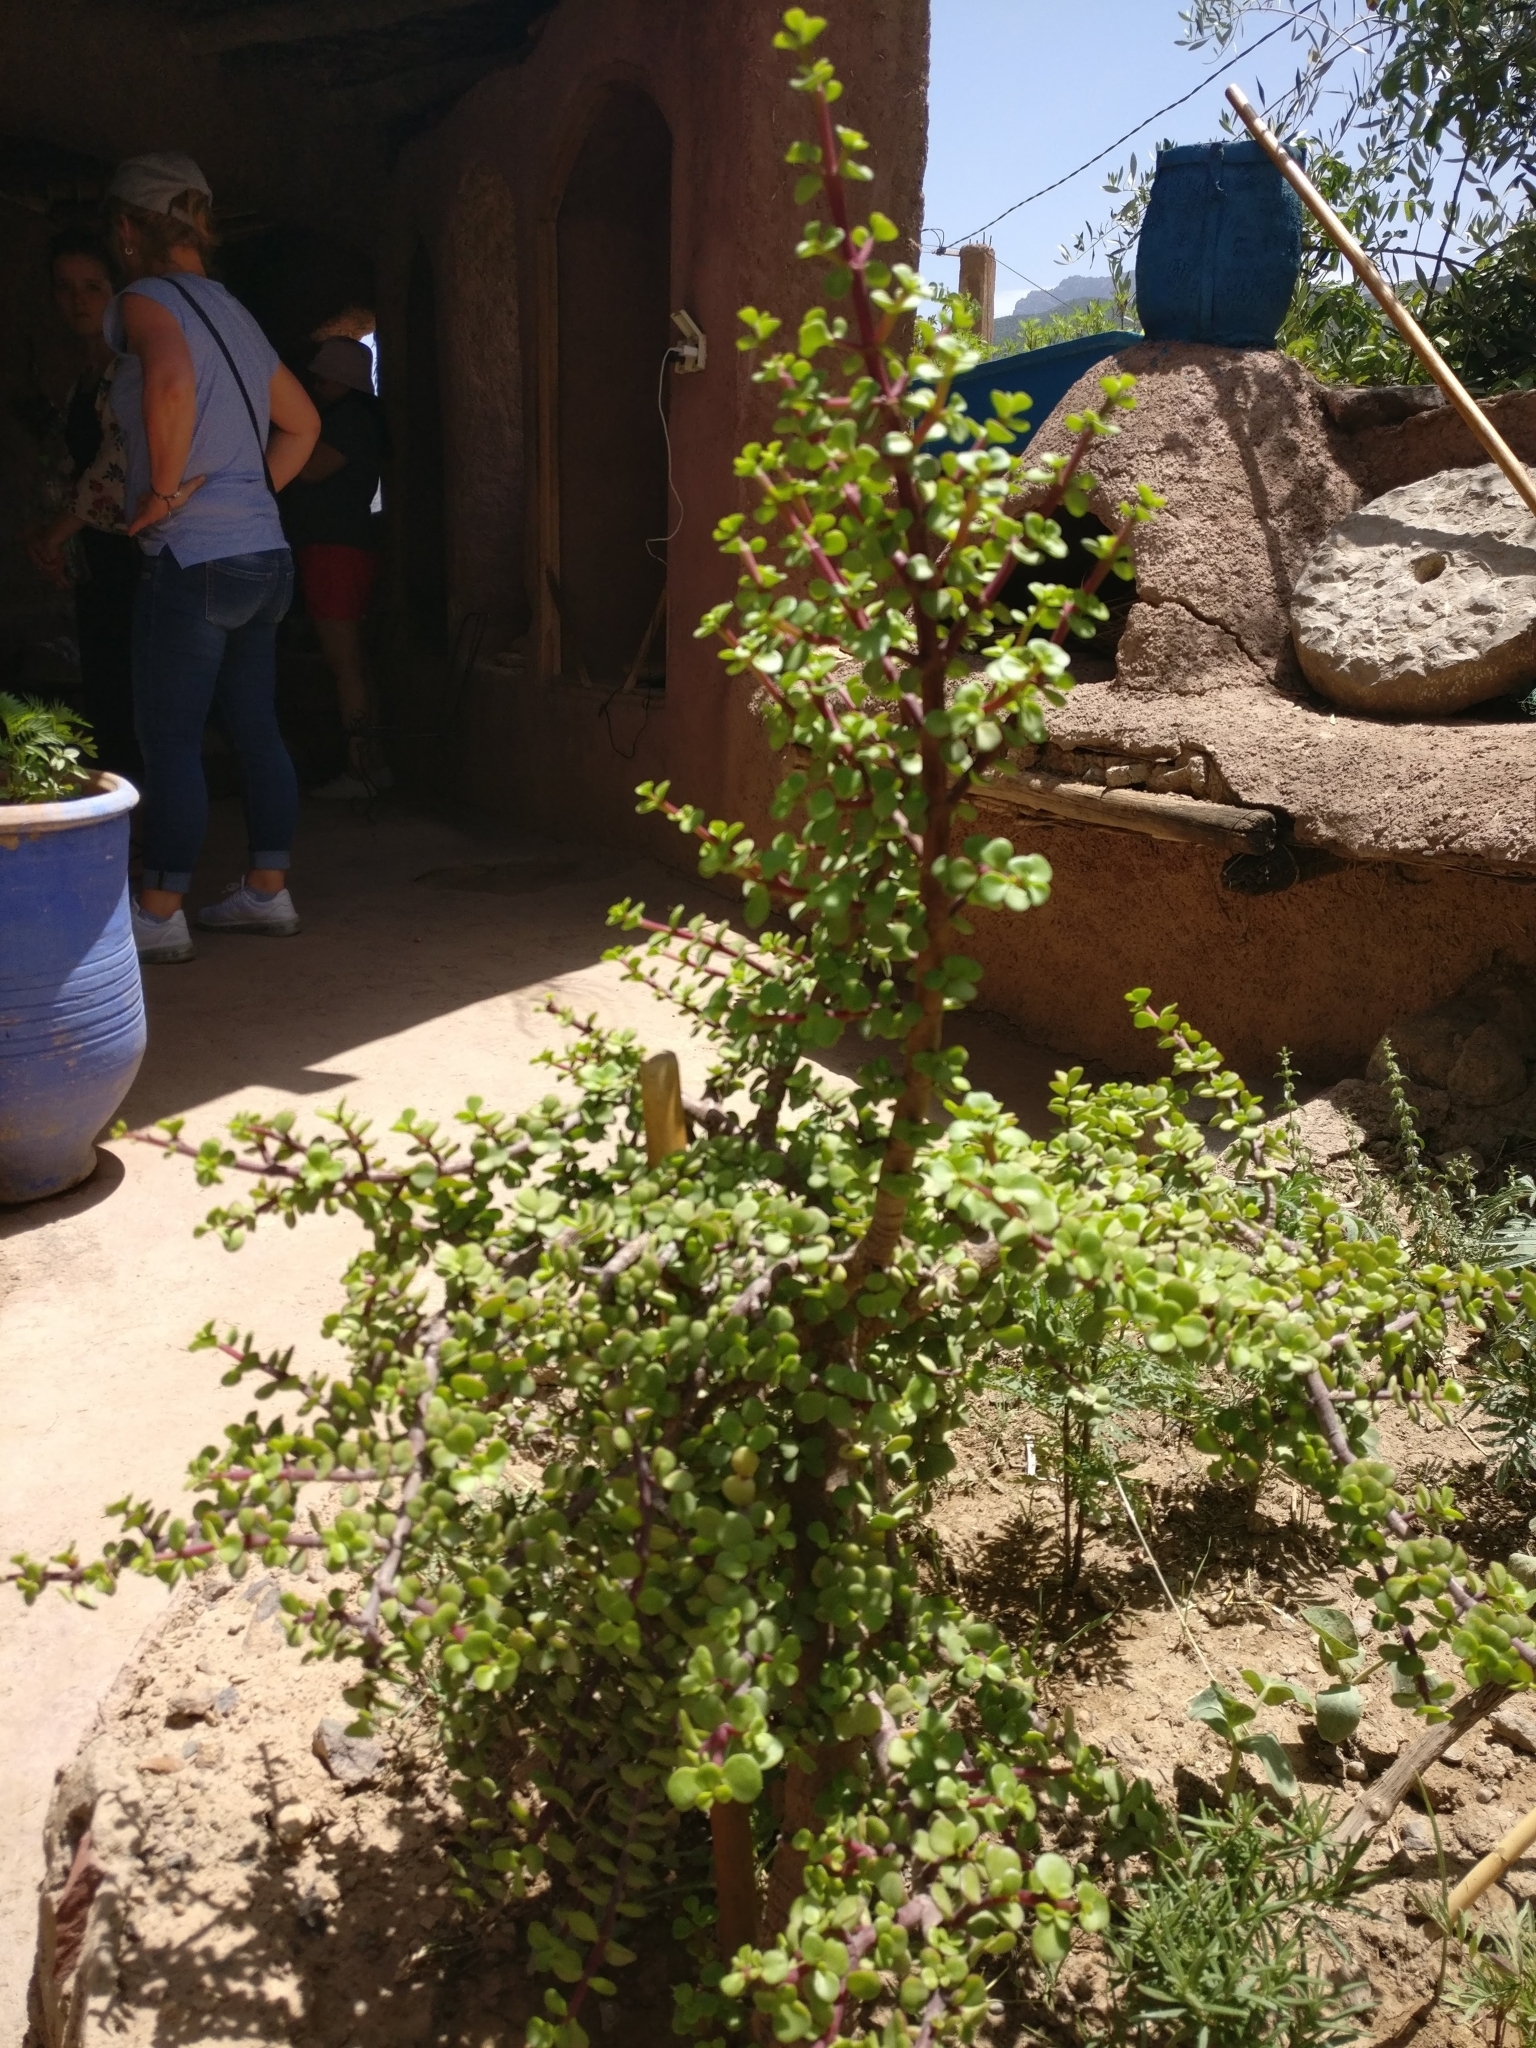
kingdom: Plantae
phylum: Tracheophyta
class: Magnoliopsida
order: Caryophyllales
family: Didiereaceae
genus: Portulacaria
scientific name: Portulacaria afra
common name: Elephant-bush
